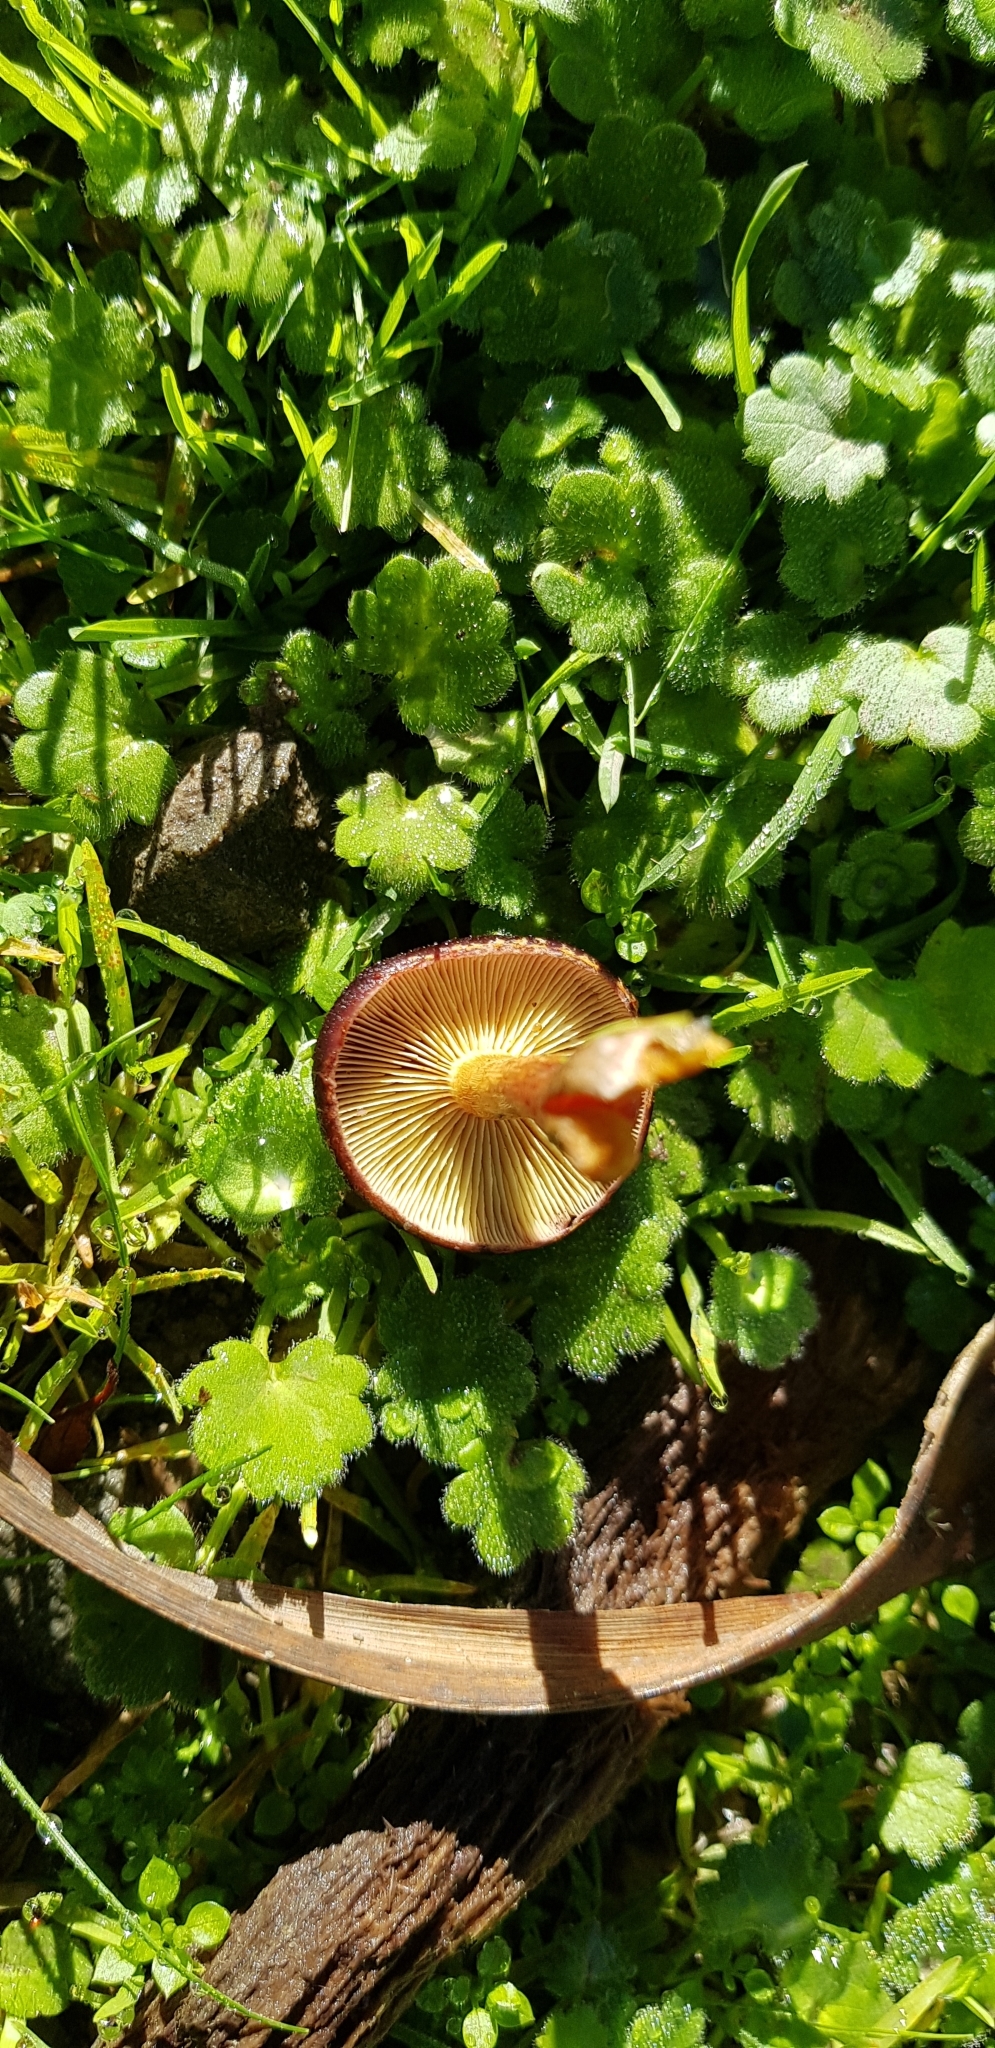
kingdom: Fungi
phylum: Basidiomycota
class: Agaricomycetes
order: Agaricales
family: Tricholomataceae
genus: Tricholomopsis
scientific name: Tricholomopsis scabra
